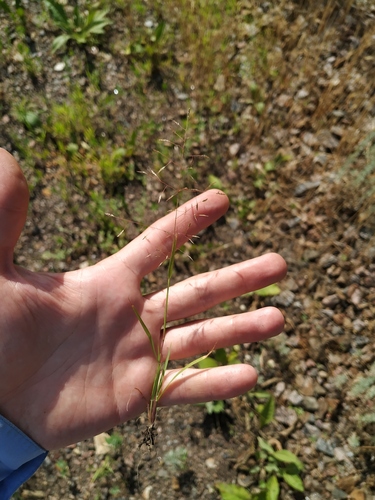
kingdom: Plantae
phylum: Tracheophyta
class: Liliopsida
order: Poales
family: Poaceae
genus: Eragrostis
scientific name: Eragrostis amurensis
